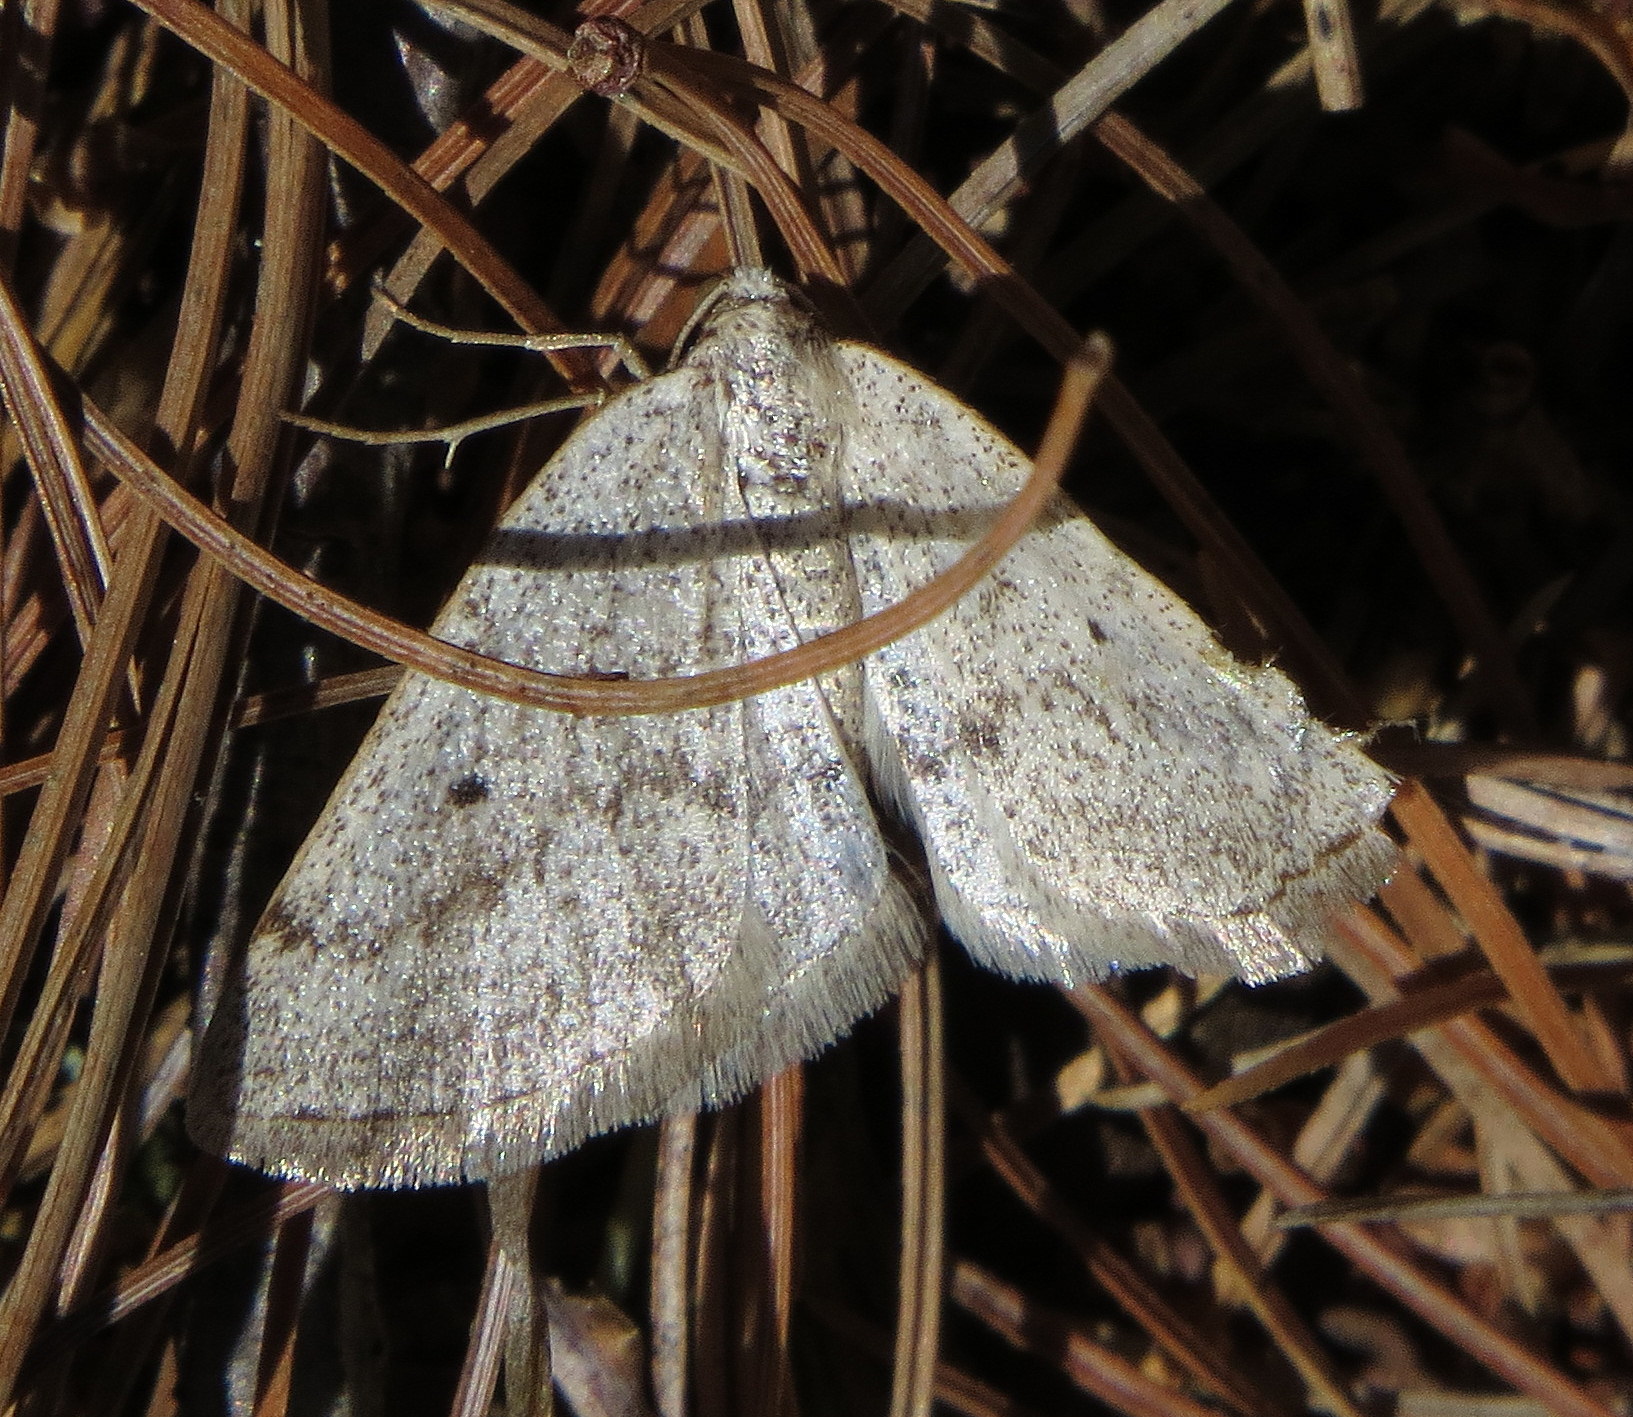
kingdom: Animalia
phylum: Arthropoda
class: Insecta
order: Lepidoptera
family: Geometridae
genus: Lomographa
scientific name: Lomographa glomeraria
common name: Gray spring moth
